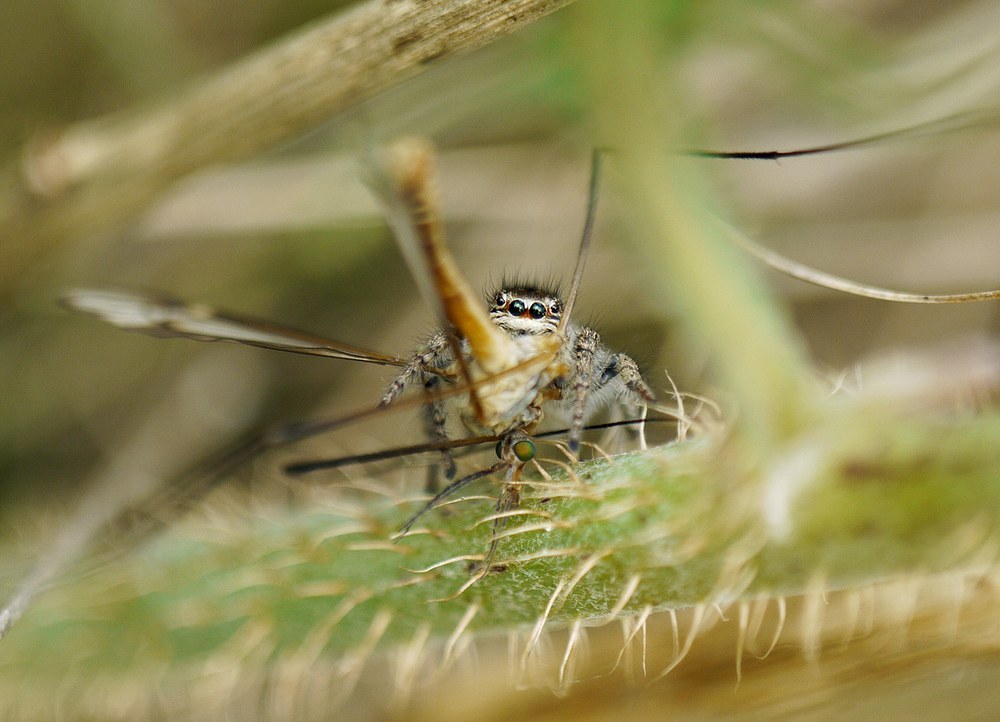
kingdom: Animalia
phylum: Arthropoda
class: Arachnida
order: Araneae
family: Salticidae
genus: Philaeus
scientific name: Philaeus chrysops
